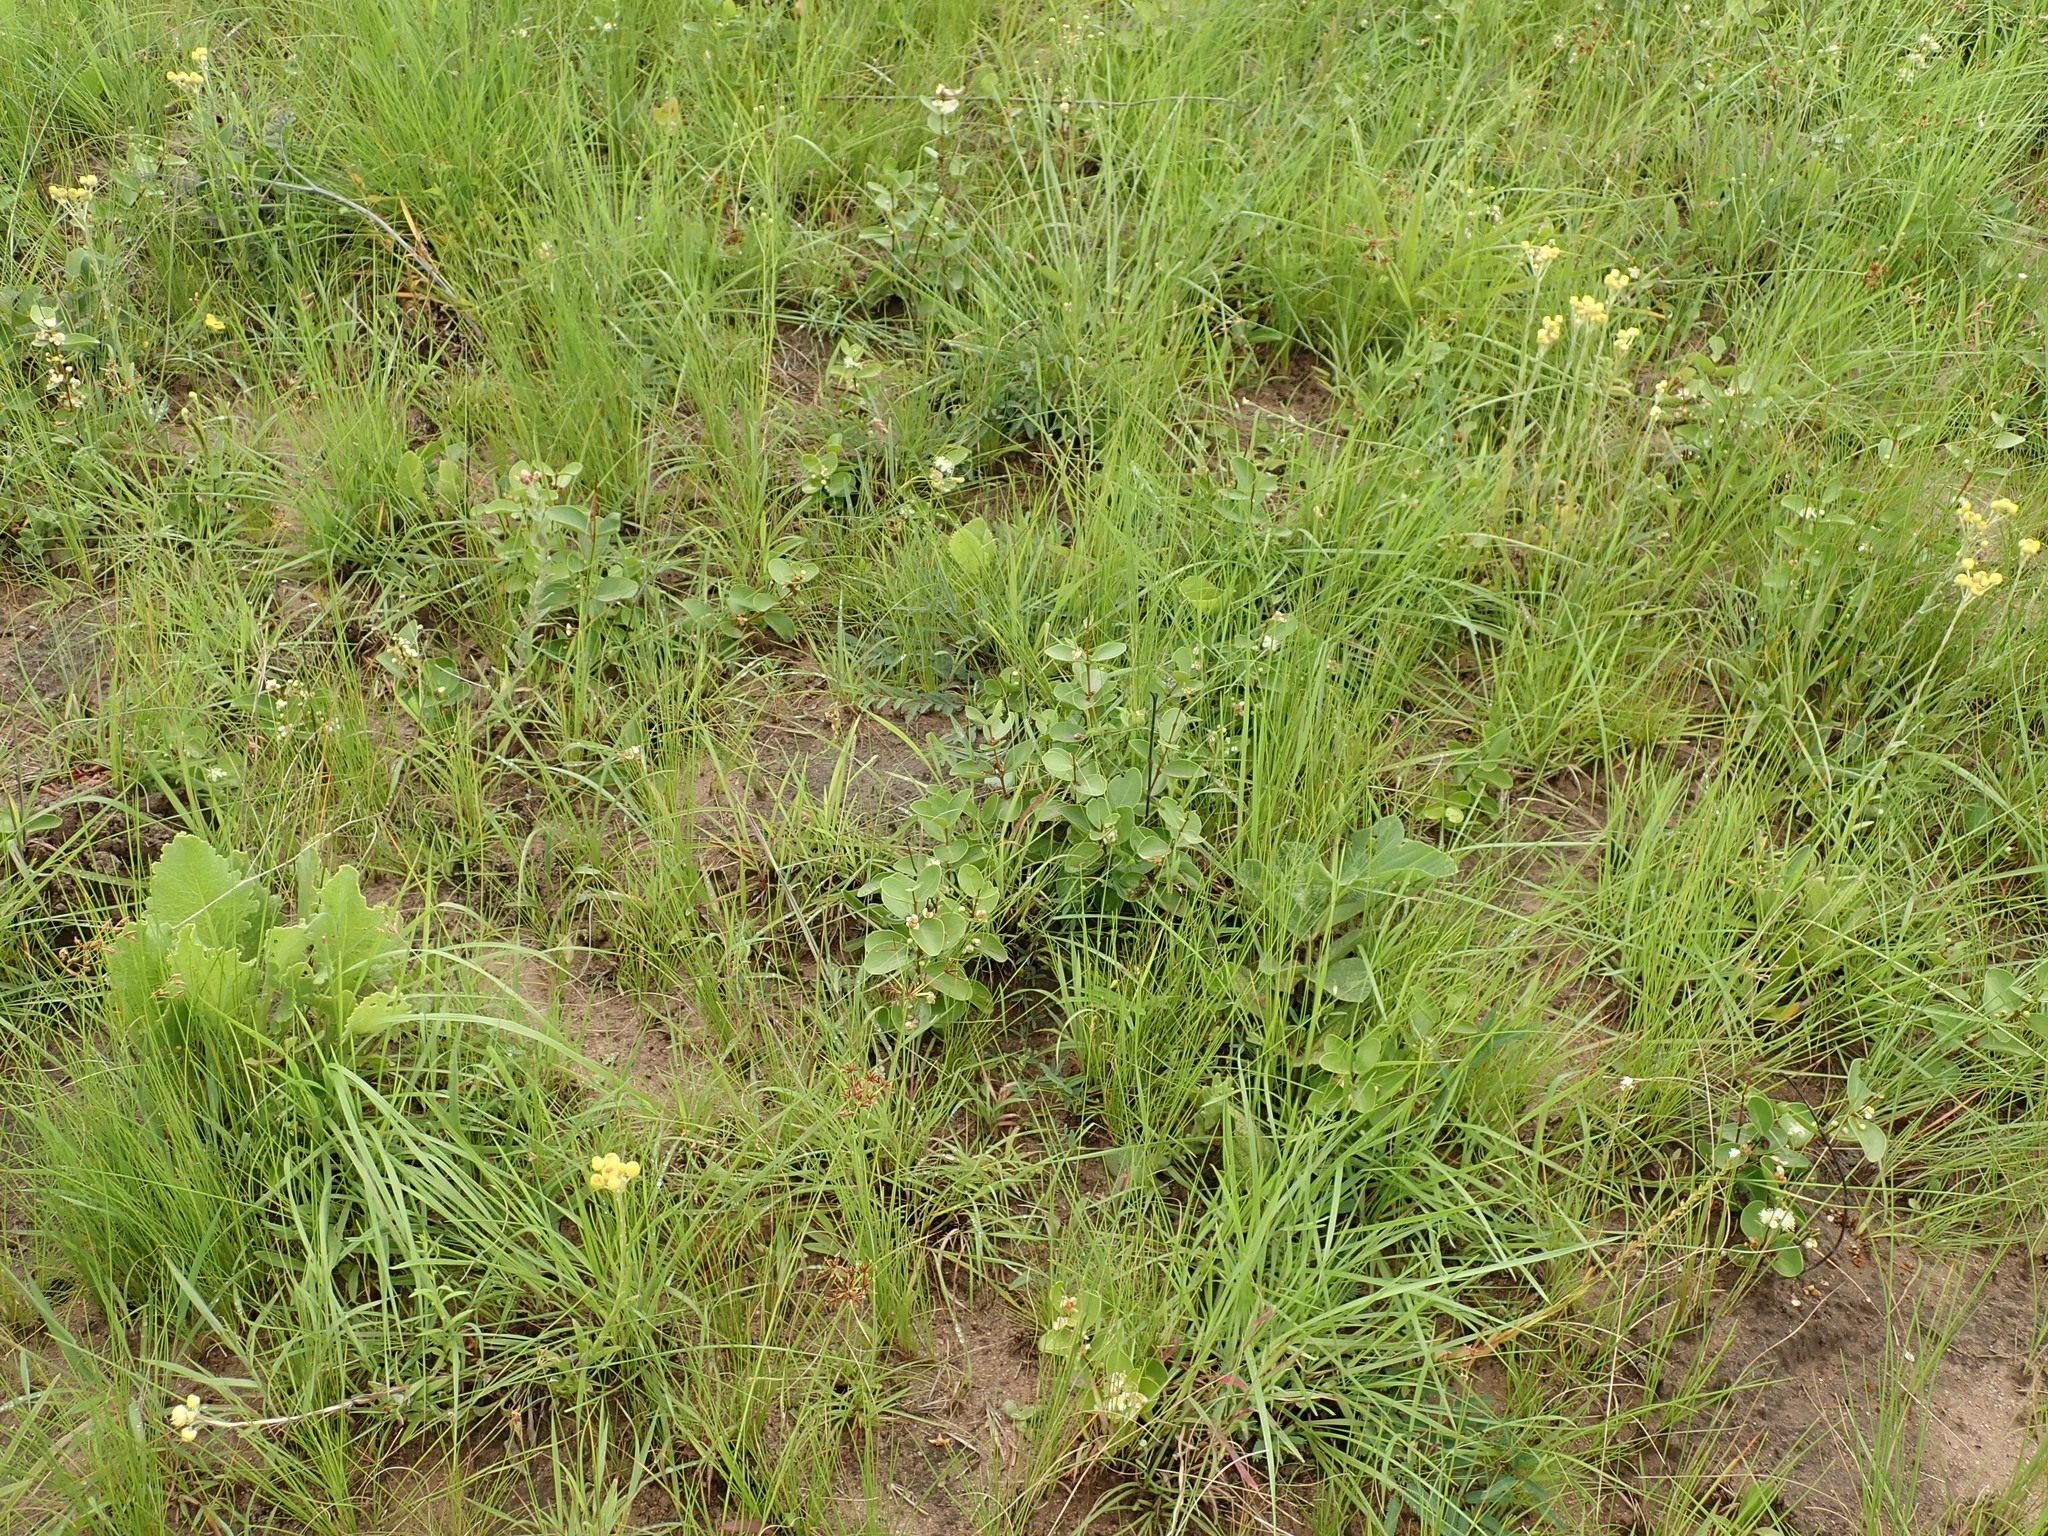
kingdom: Plantae
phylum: Tracheophyta
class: Magnoliopsida
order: Myrtales
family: Myrtaceae
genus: Eugenia
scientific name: Eugenia capensis
